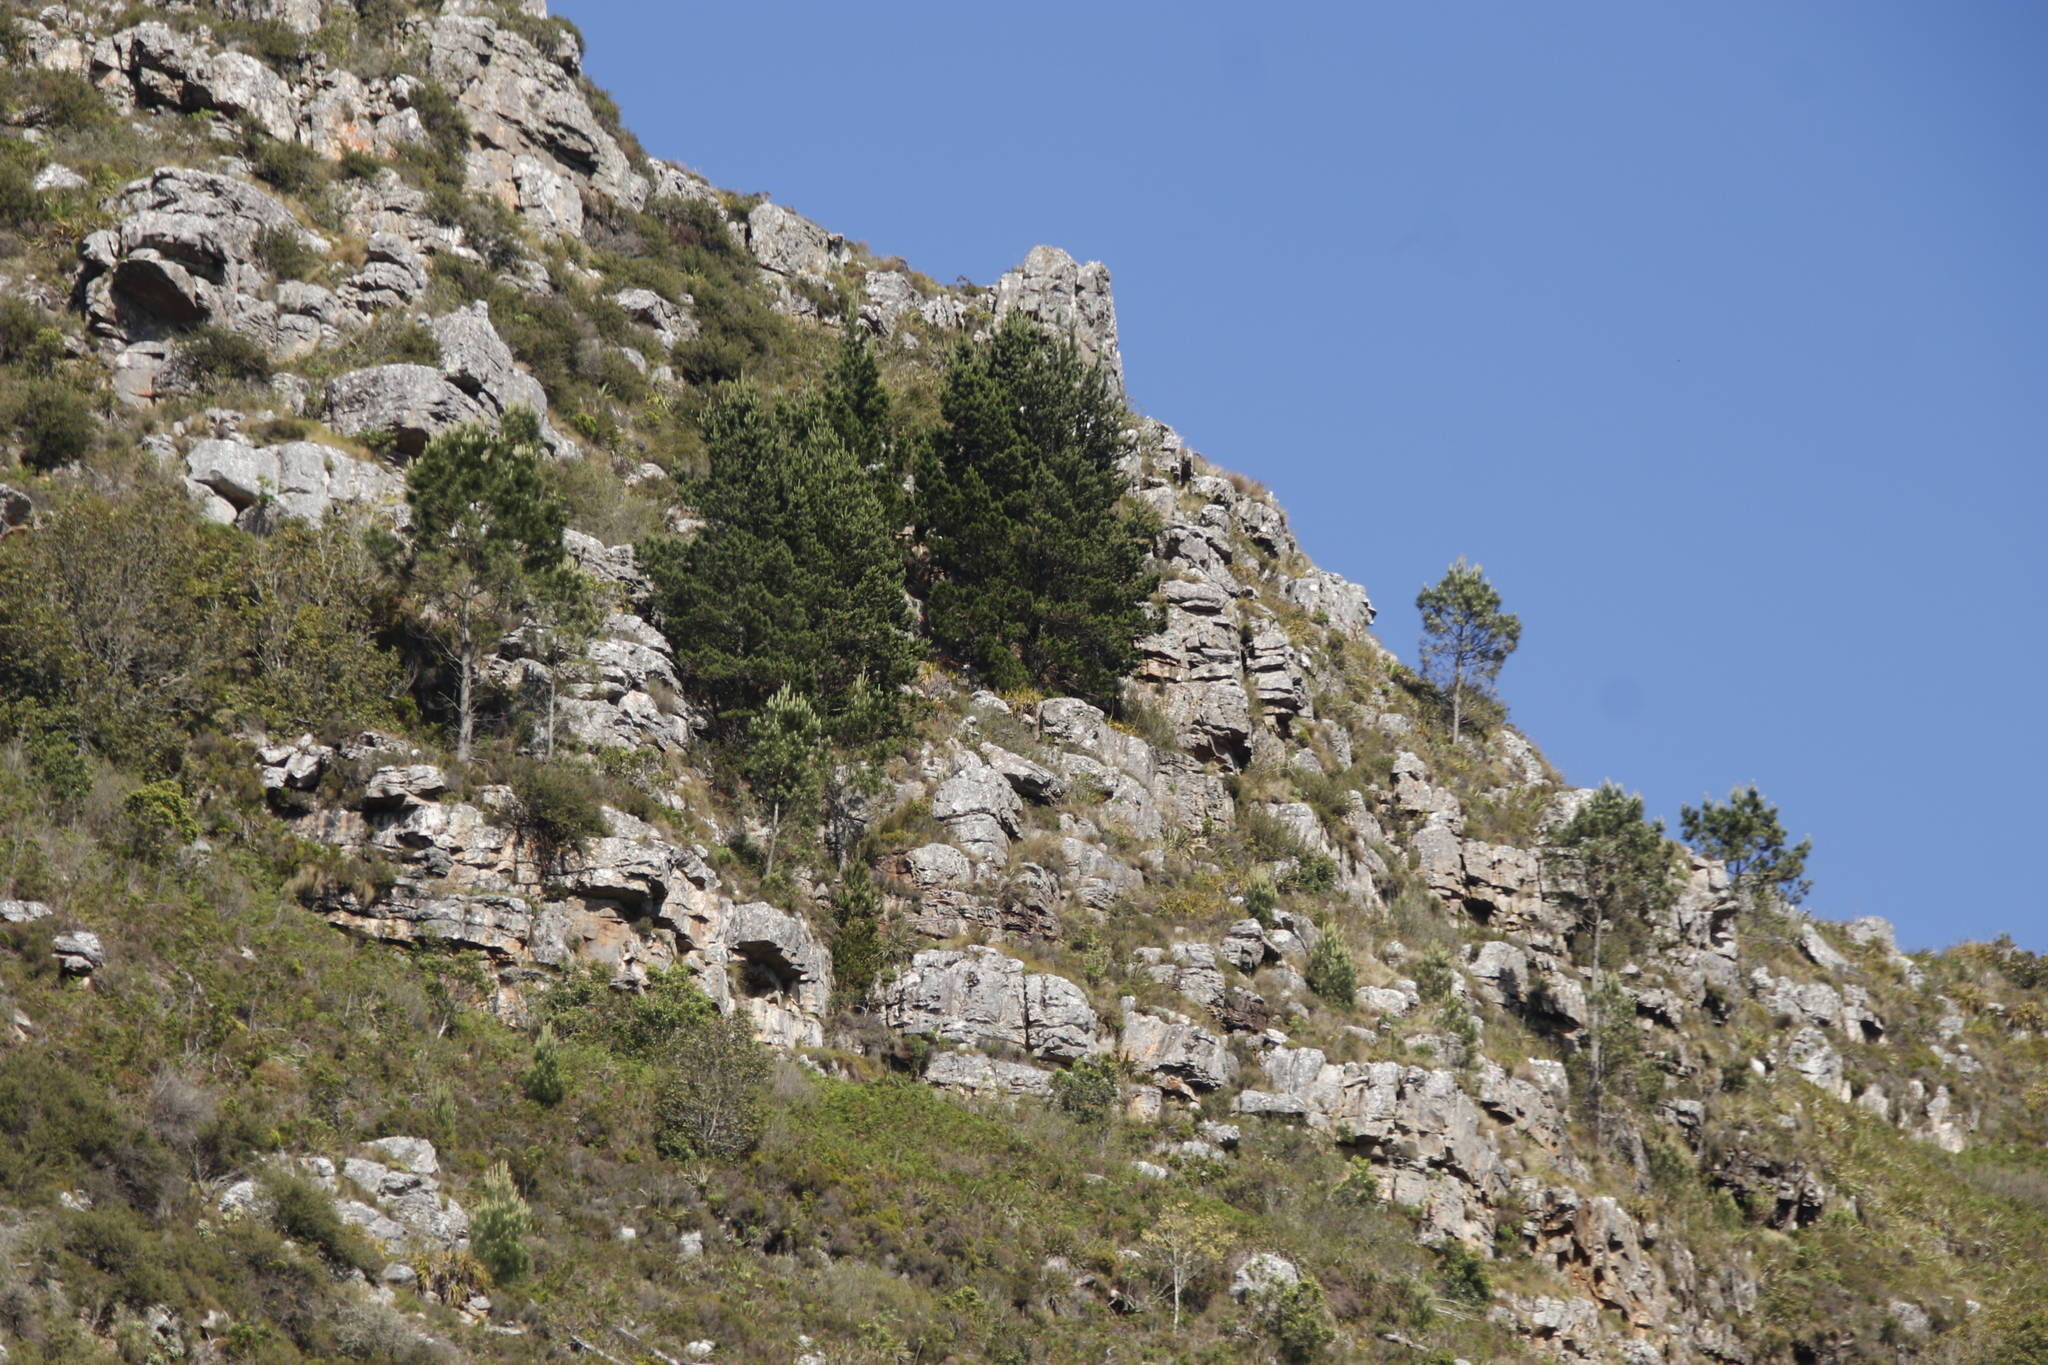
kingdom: Plantae
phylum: Tracheophyta
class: Pinopsida
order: Pinales
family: Pinaceae
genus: Pinus
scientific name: Pinus radiata
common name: Monterey pine
